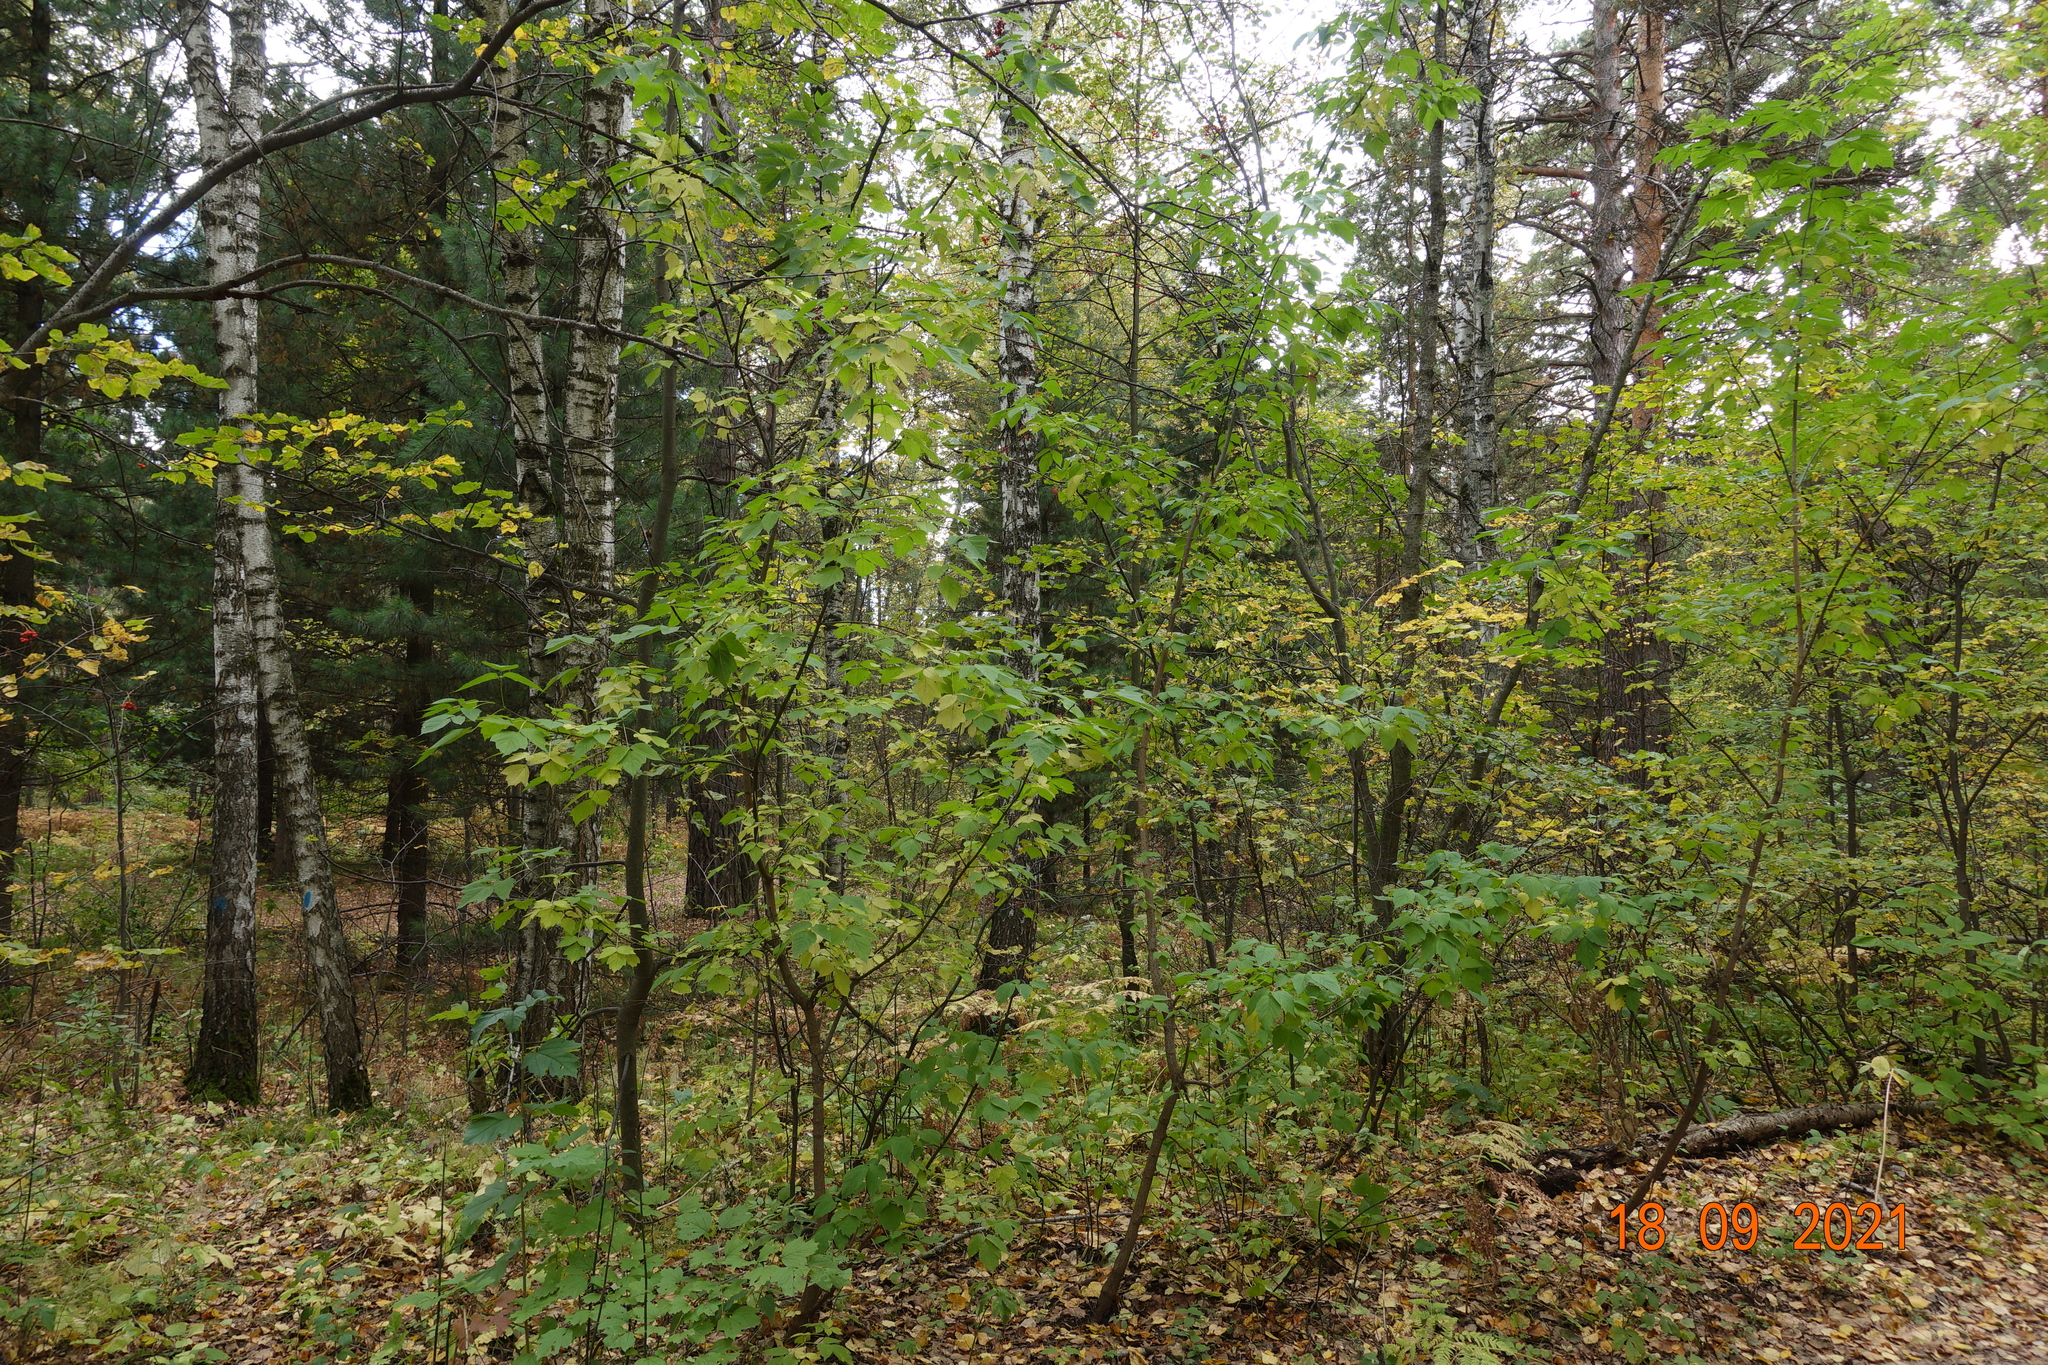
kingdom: Plantae
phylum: Tracheophyta
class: Magnoliopsida
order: Sapindales
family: Sapindaceae
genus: Acer
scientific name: Acer negundo
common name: Ashleaf maple
